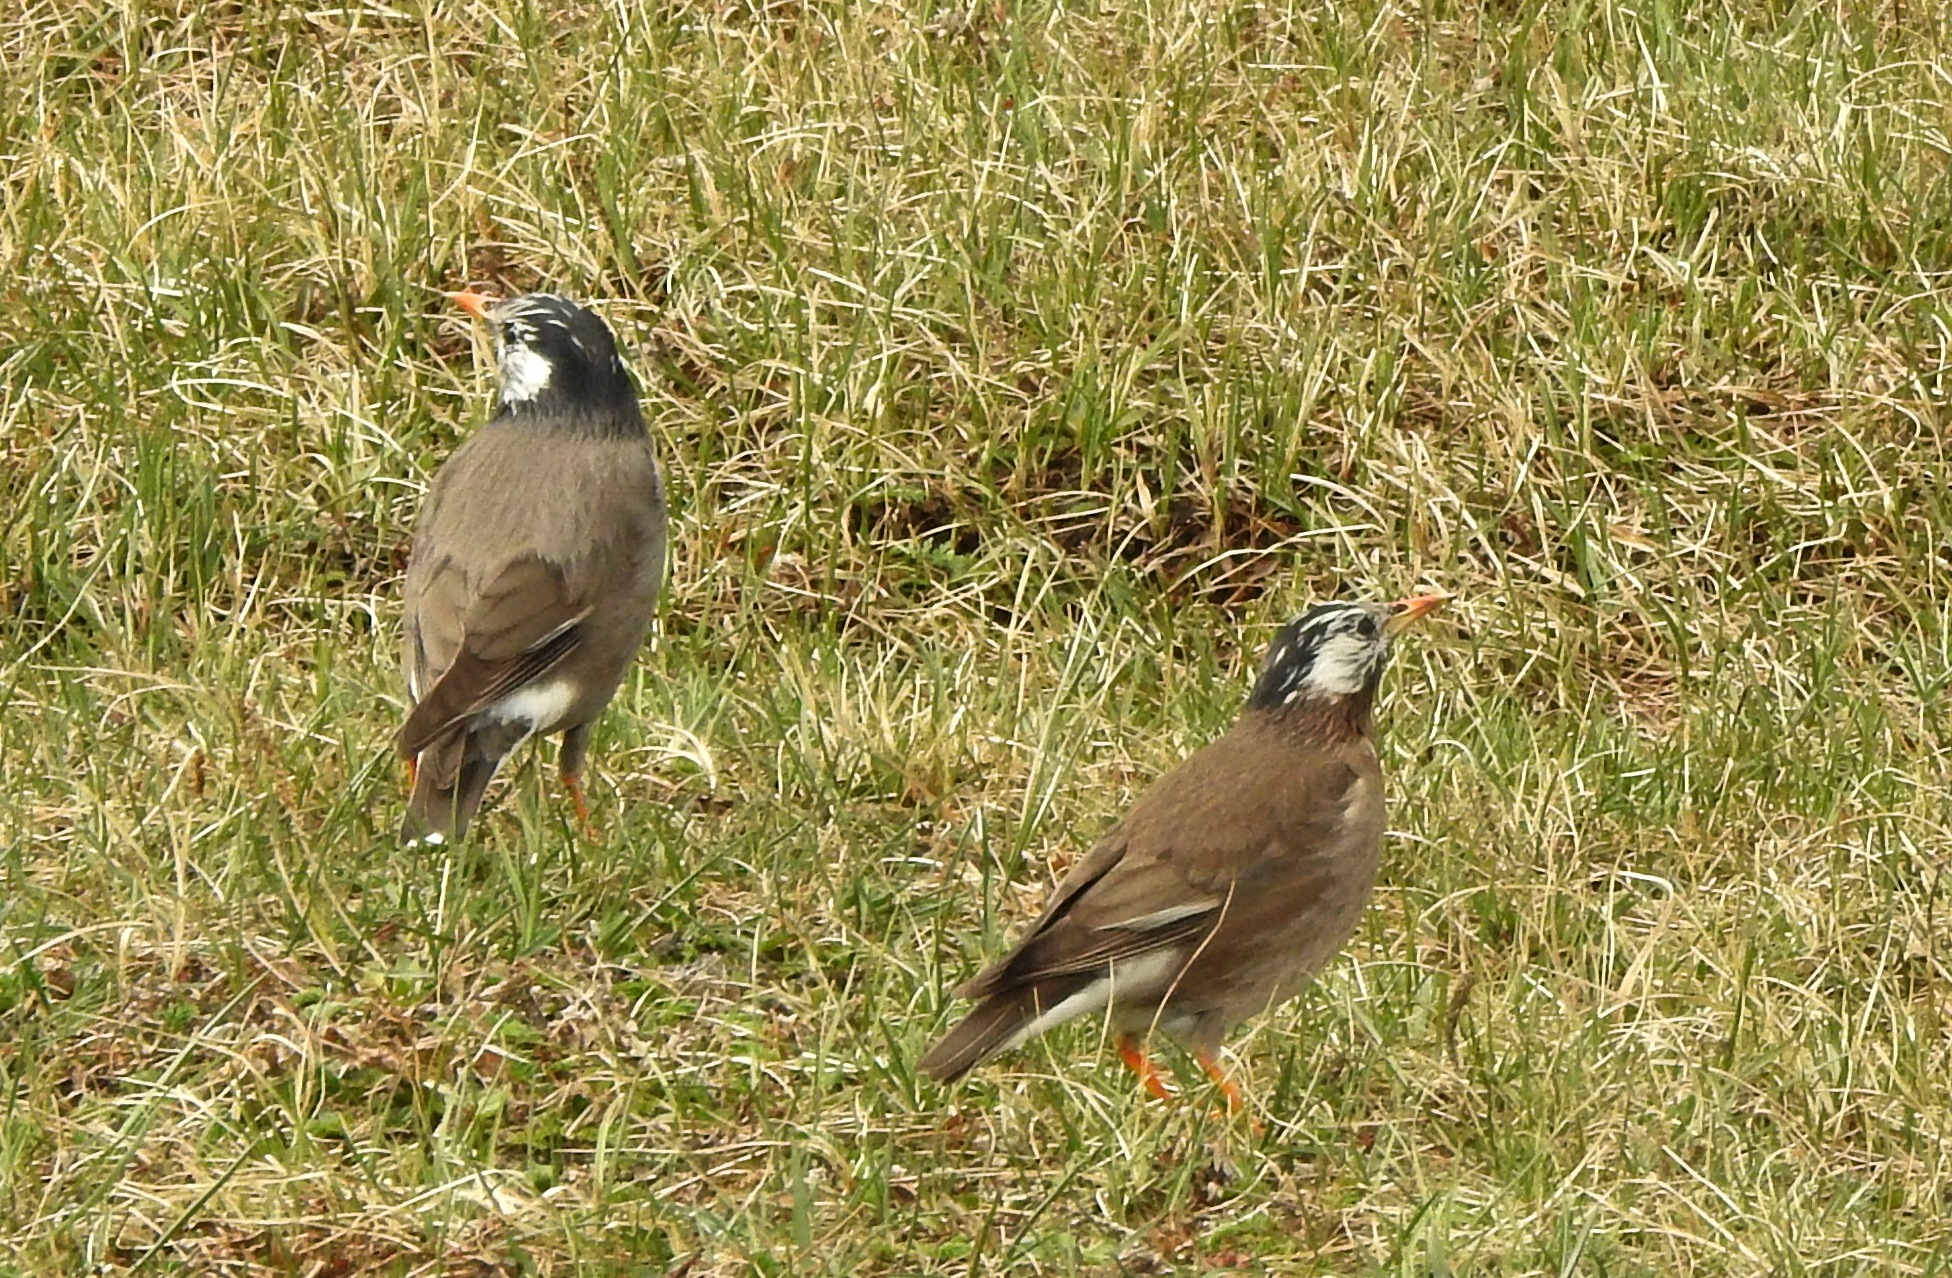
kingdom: Animalia
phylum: Chordata
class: Aves
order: Passeriformes
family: Sturnidae
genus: Spodiopsar
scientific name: Spodiopsar cineraceus
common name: White-cheeked starling
